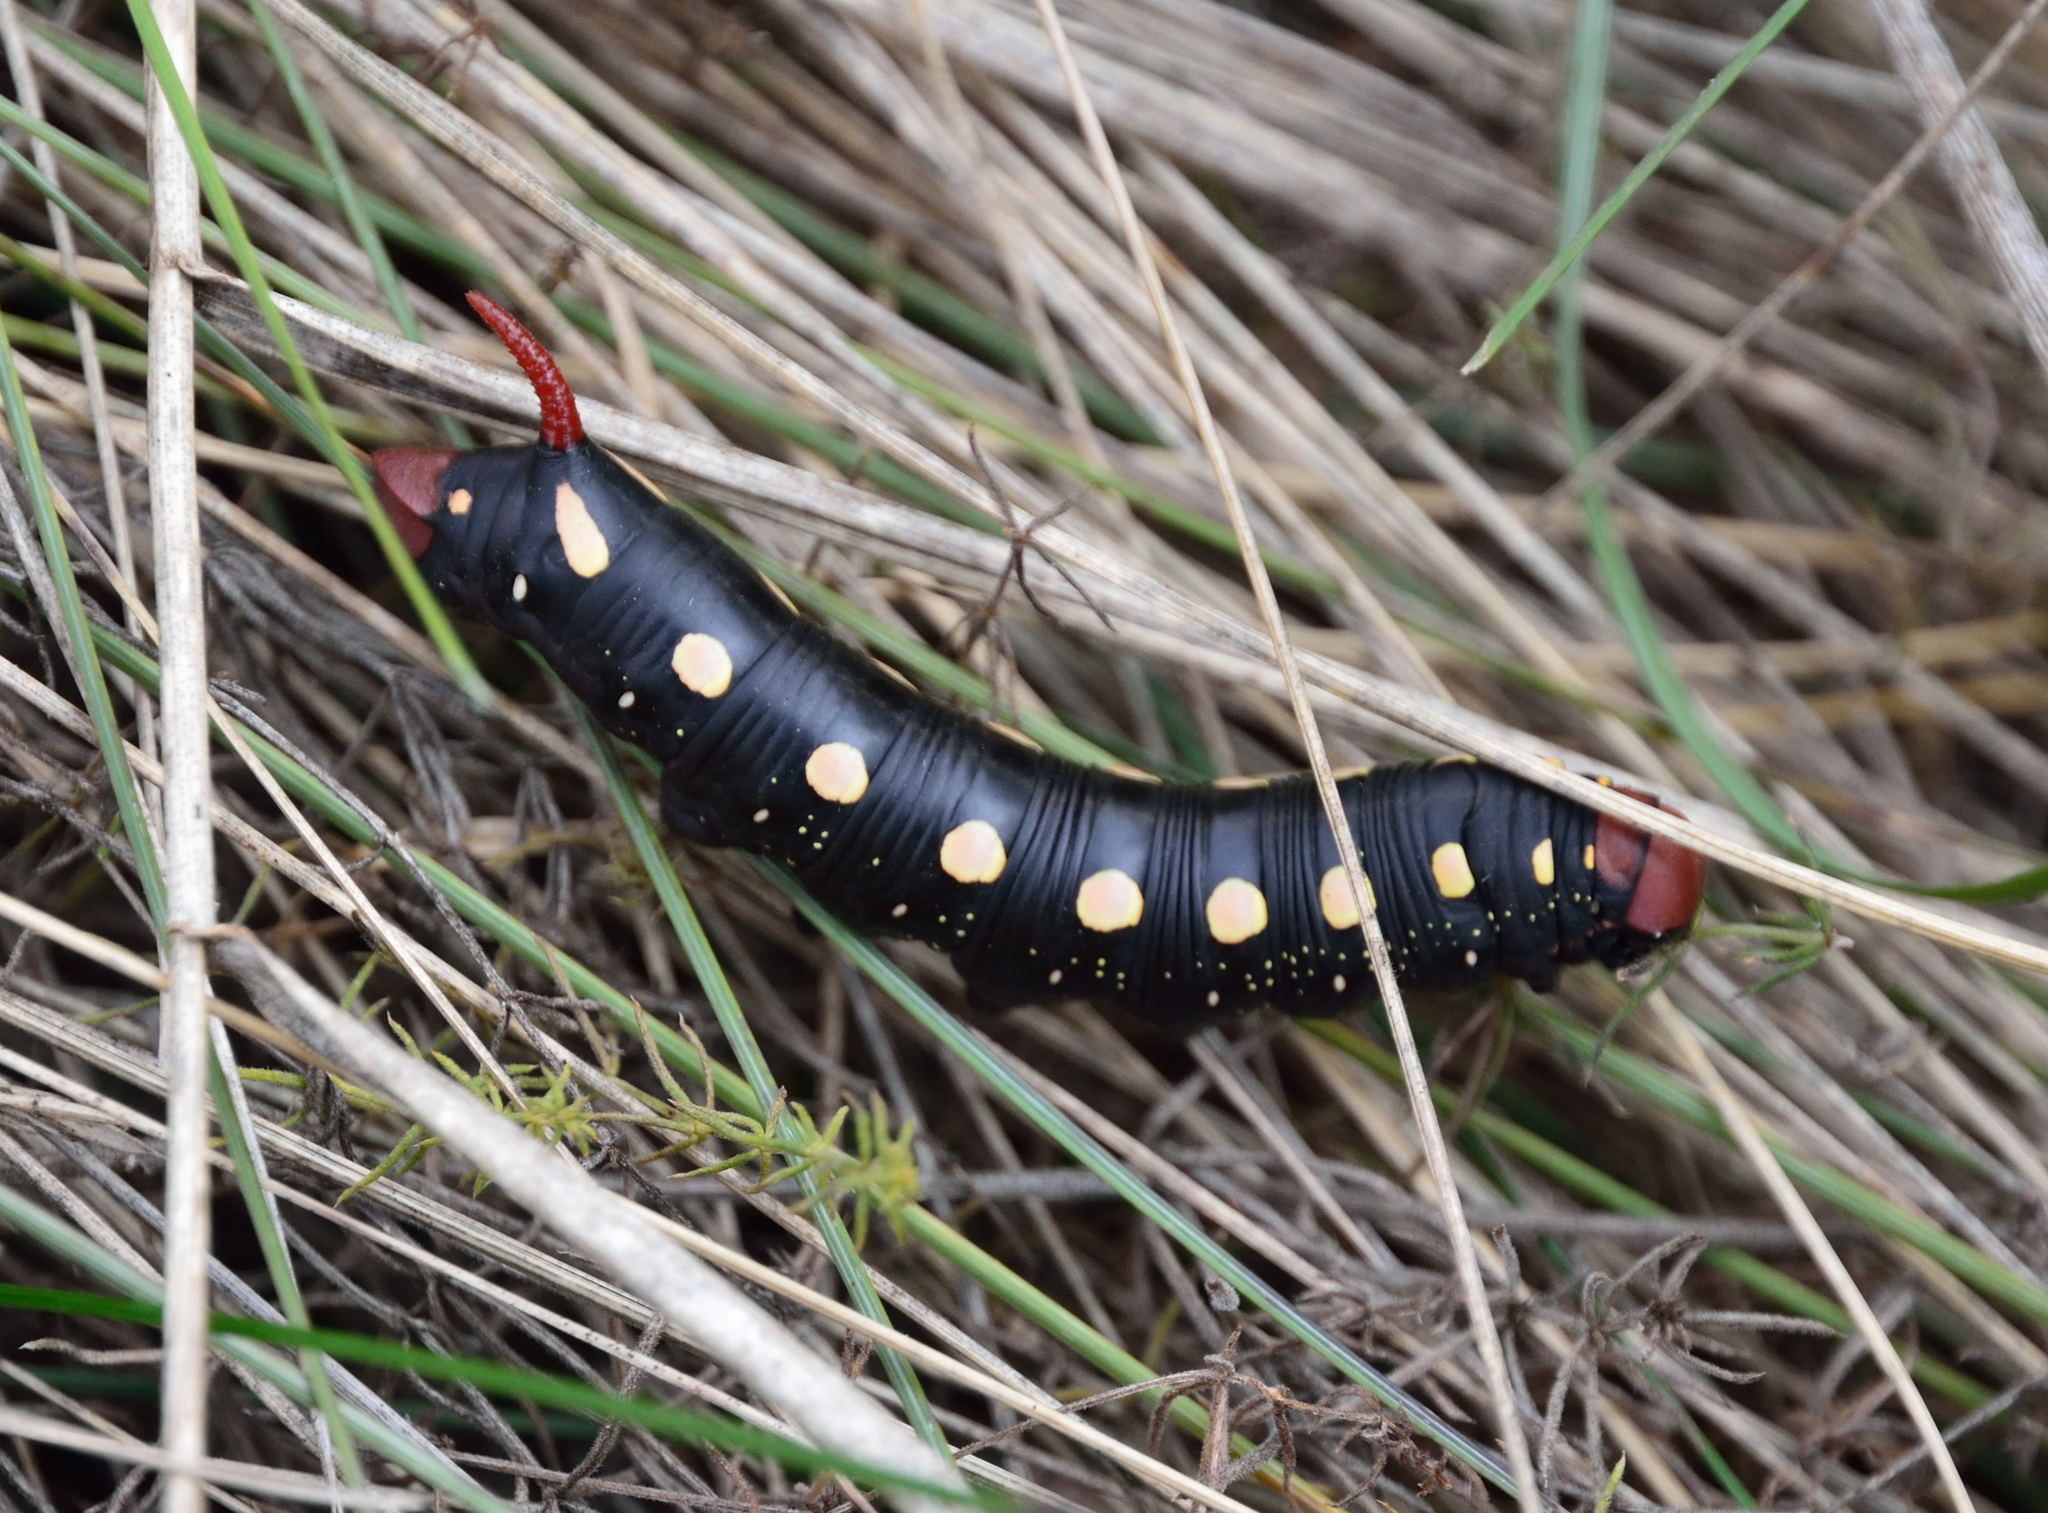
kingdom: Animalia
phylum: Arthropoda
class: Insecta
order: Lepidoptera
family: Sphingidae
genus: Hyles
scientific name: Hyles gallii
